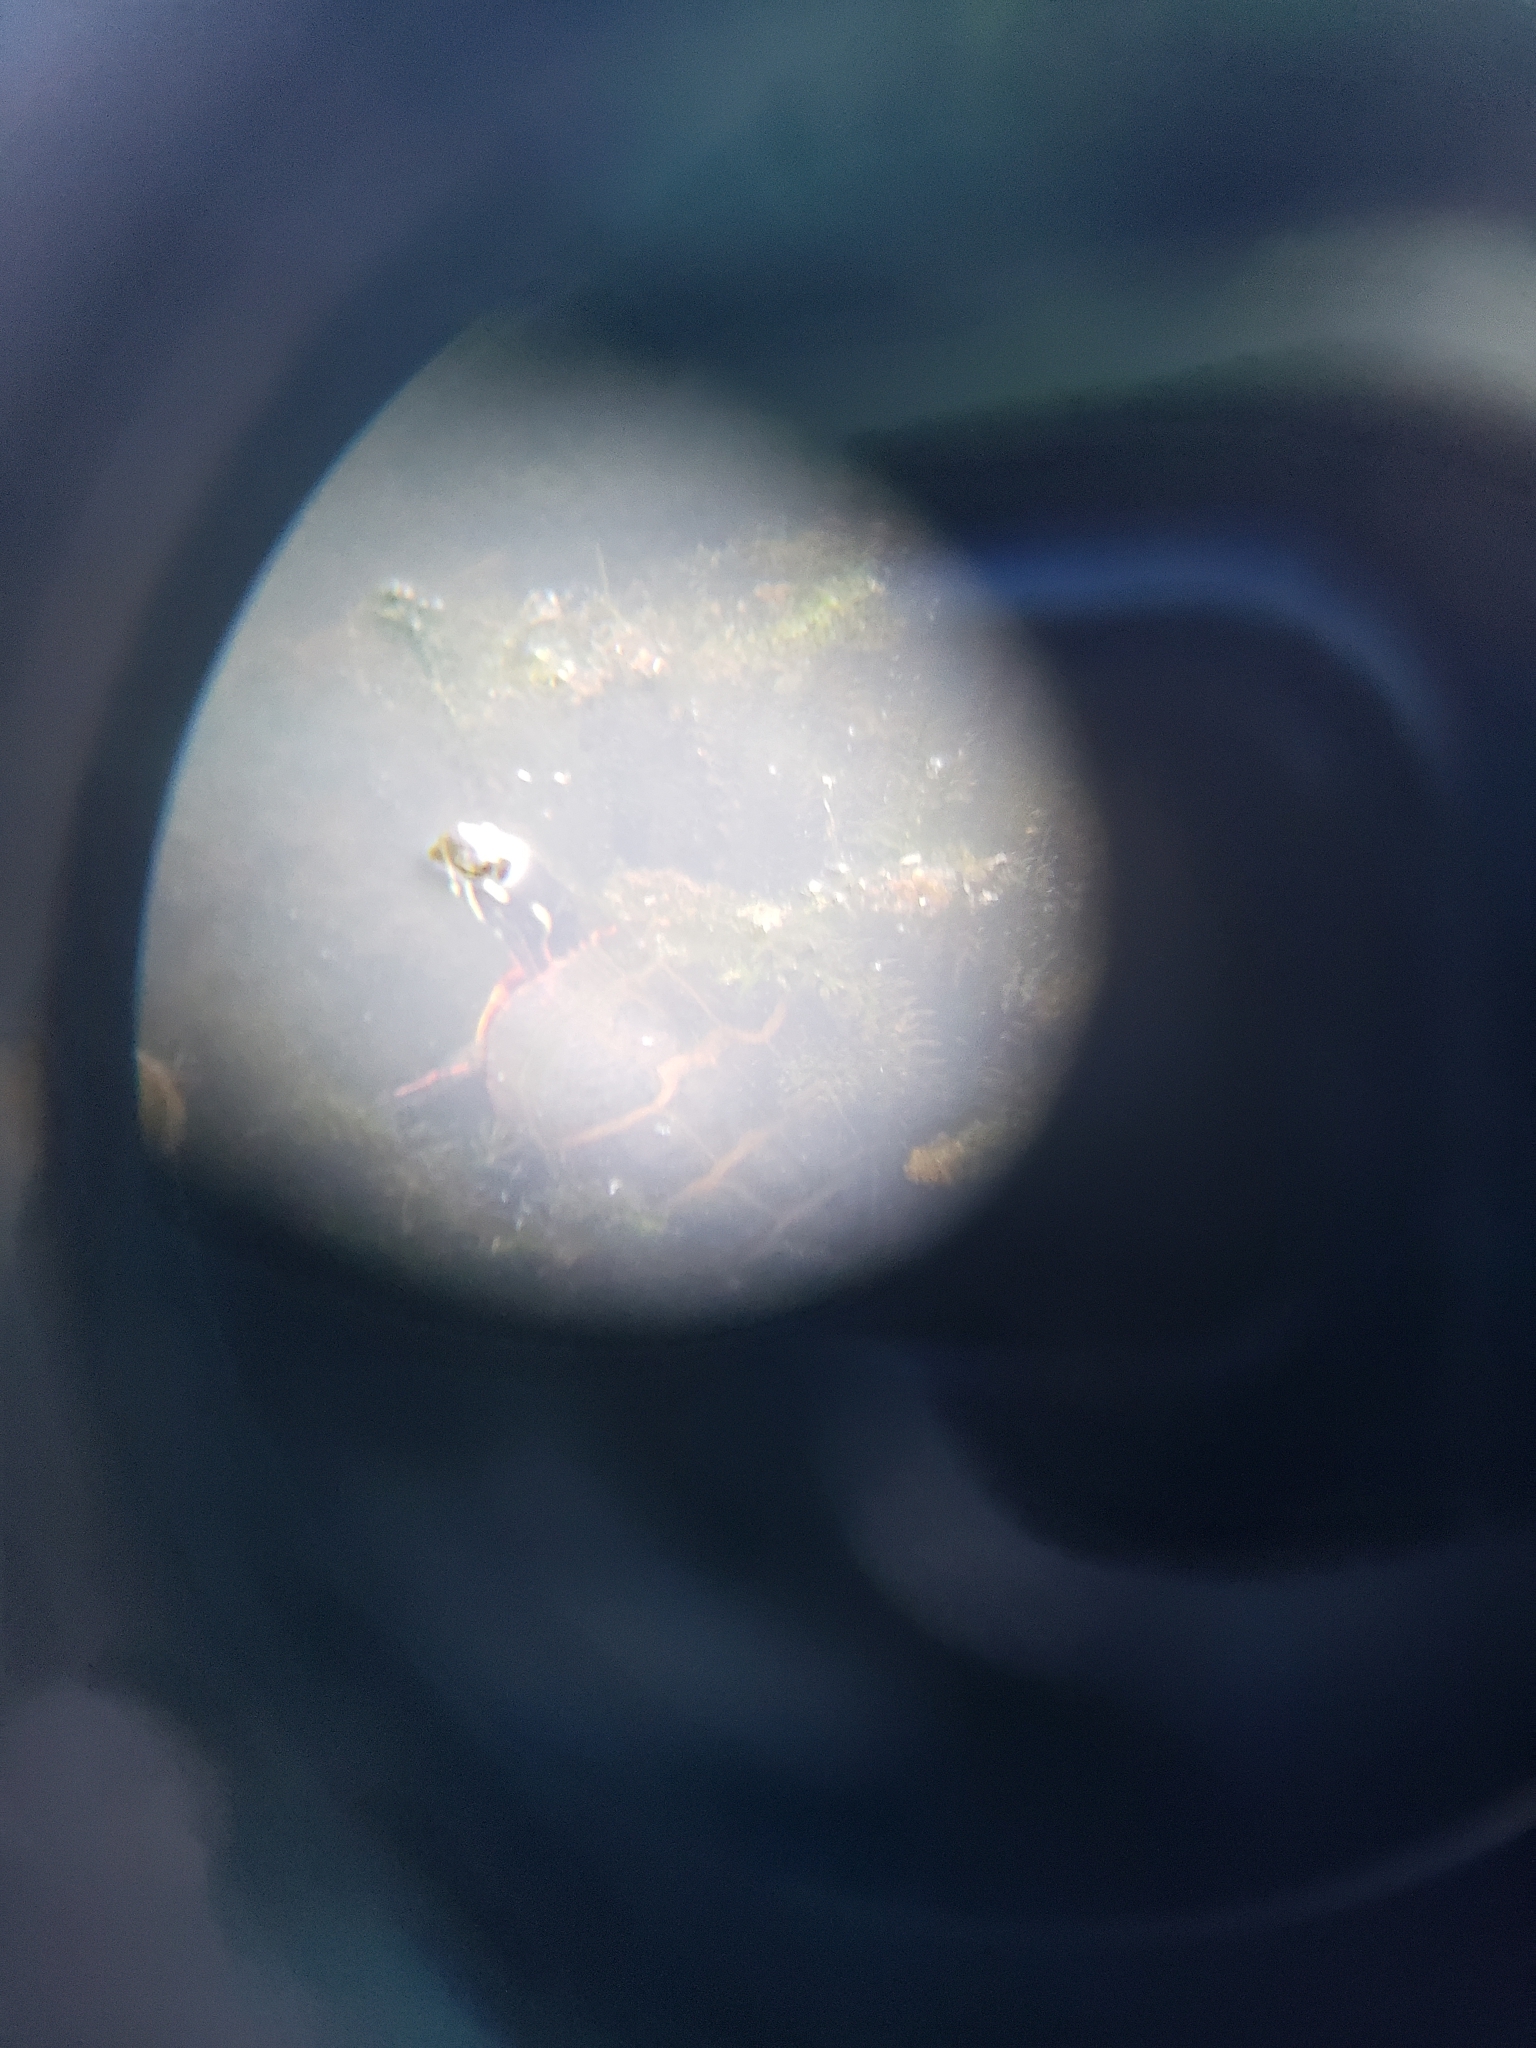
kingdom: Animalia
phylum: Chordata
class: Testudines
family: Emydidae
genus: Chrysemys
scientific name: Chrysemys picta
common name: Painted turtle
